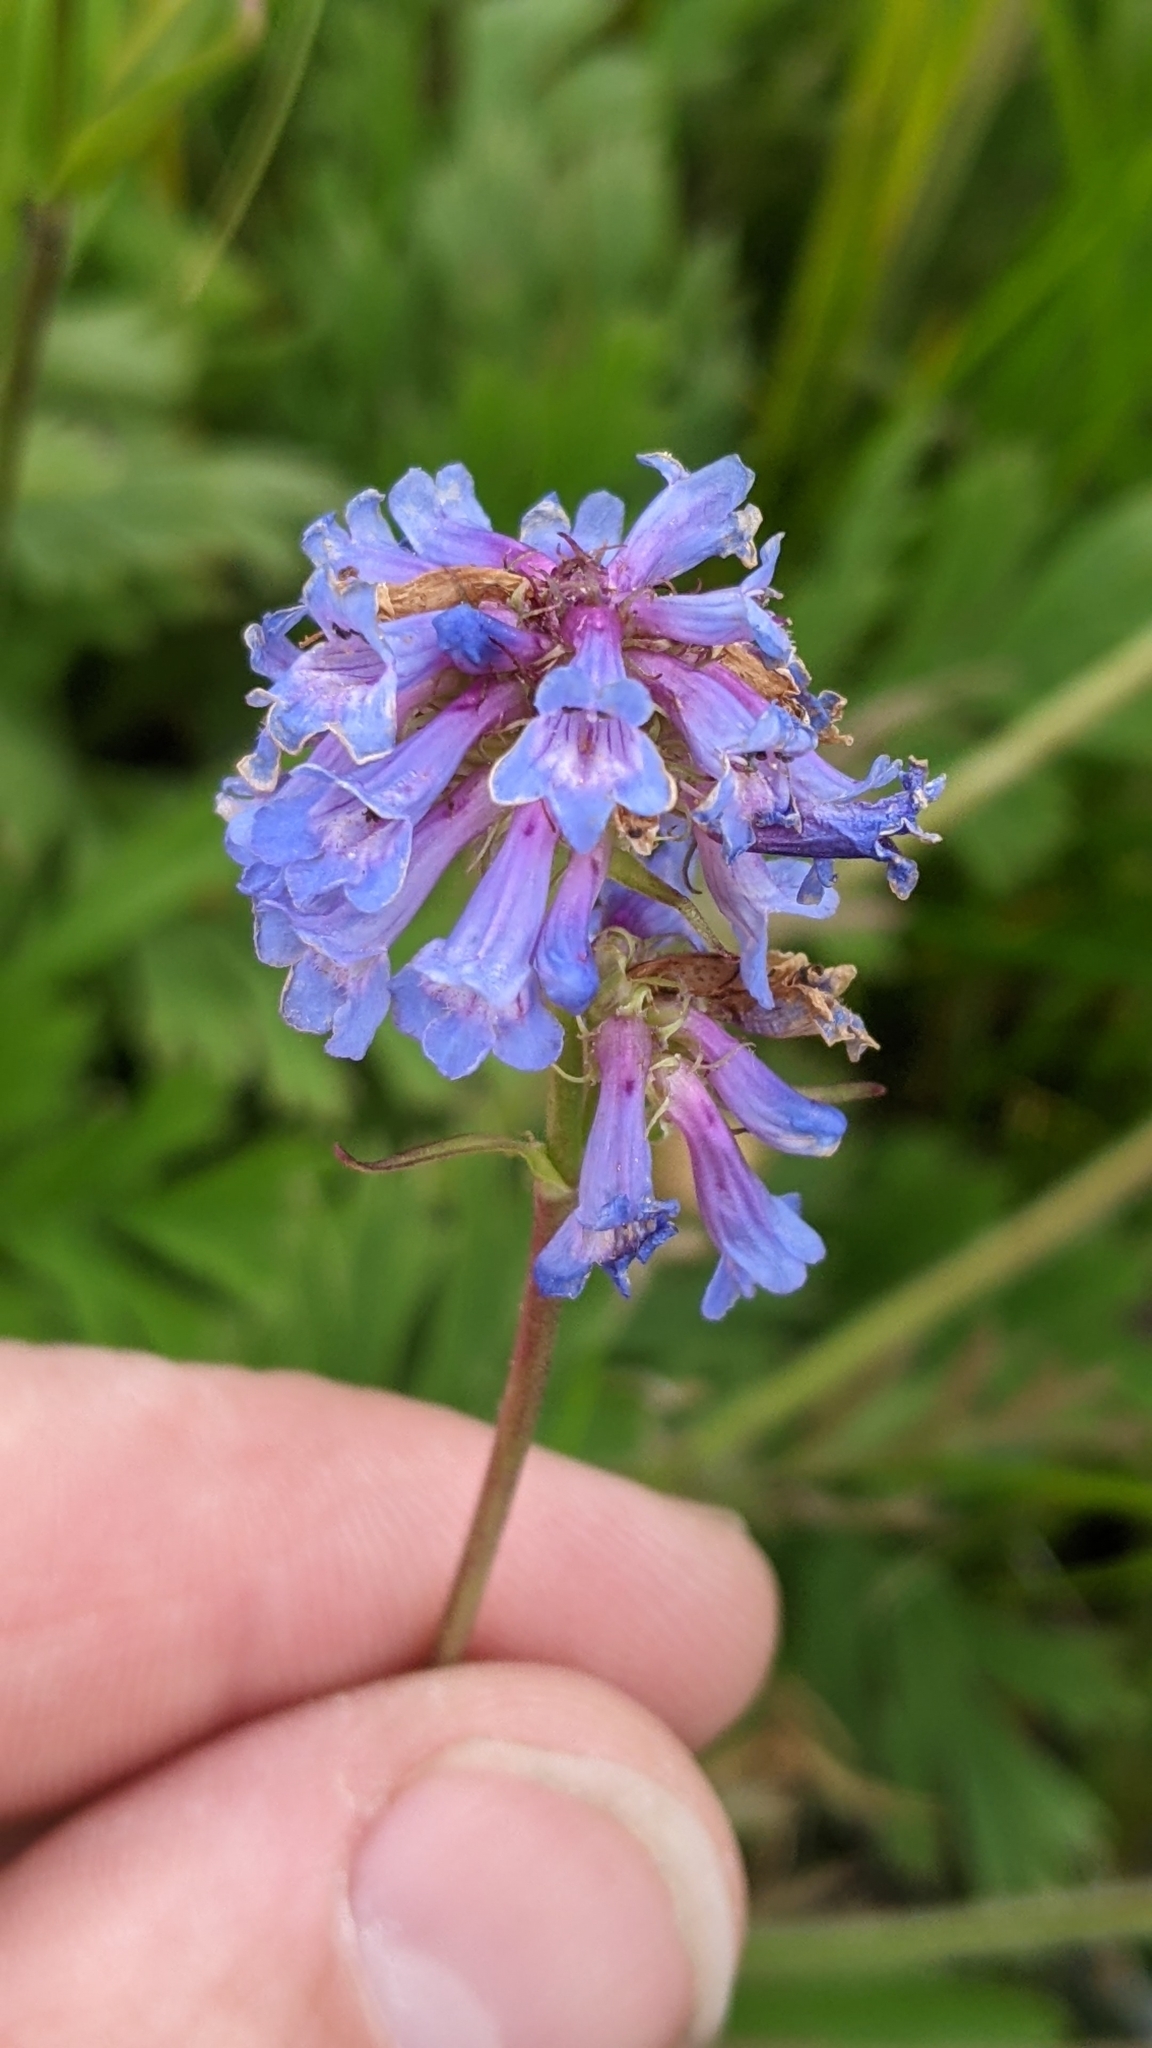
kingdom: Plantae
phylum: Tracheophyta
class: Magnoliopsida
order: Lamiales
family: Plantaginaceae
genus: Penstemon
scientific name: Penstemon procerus
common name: Small-flower penstemon
